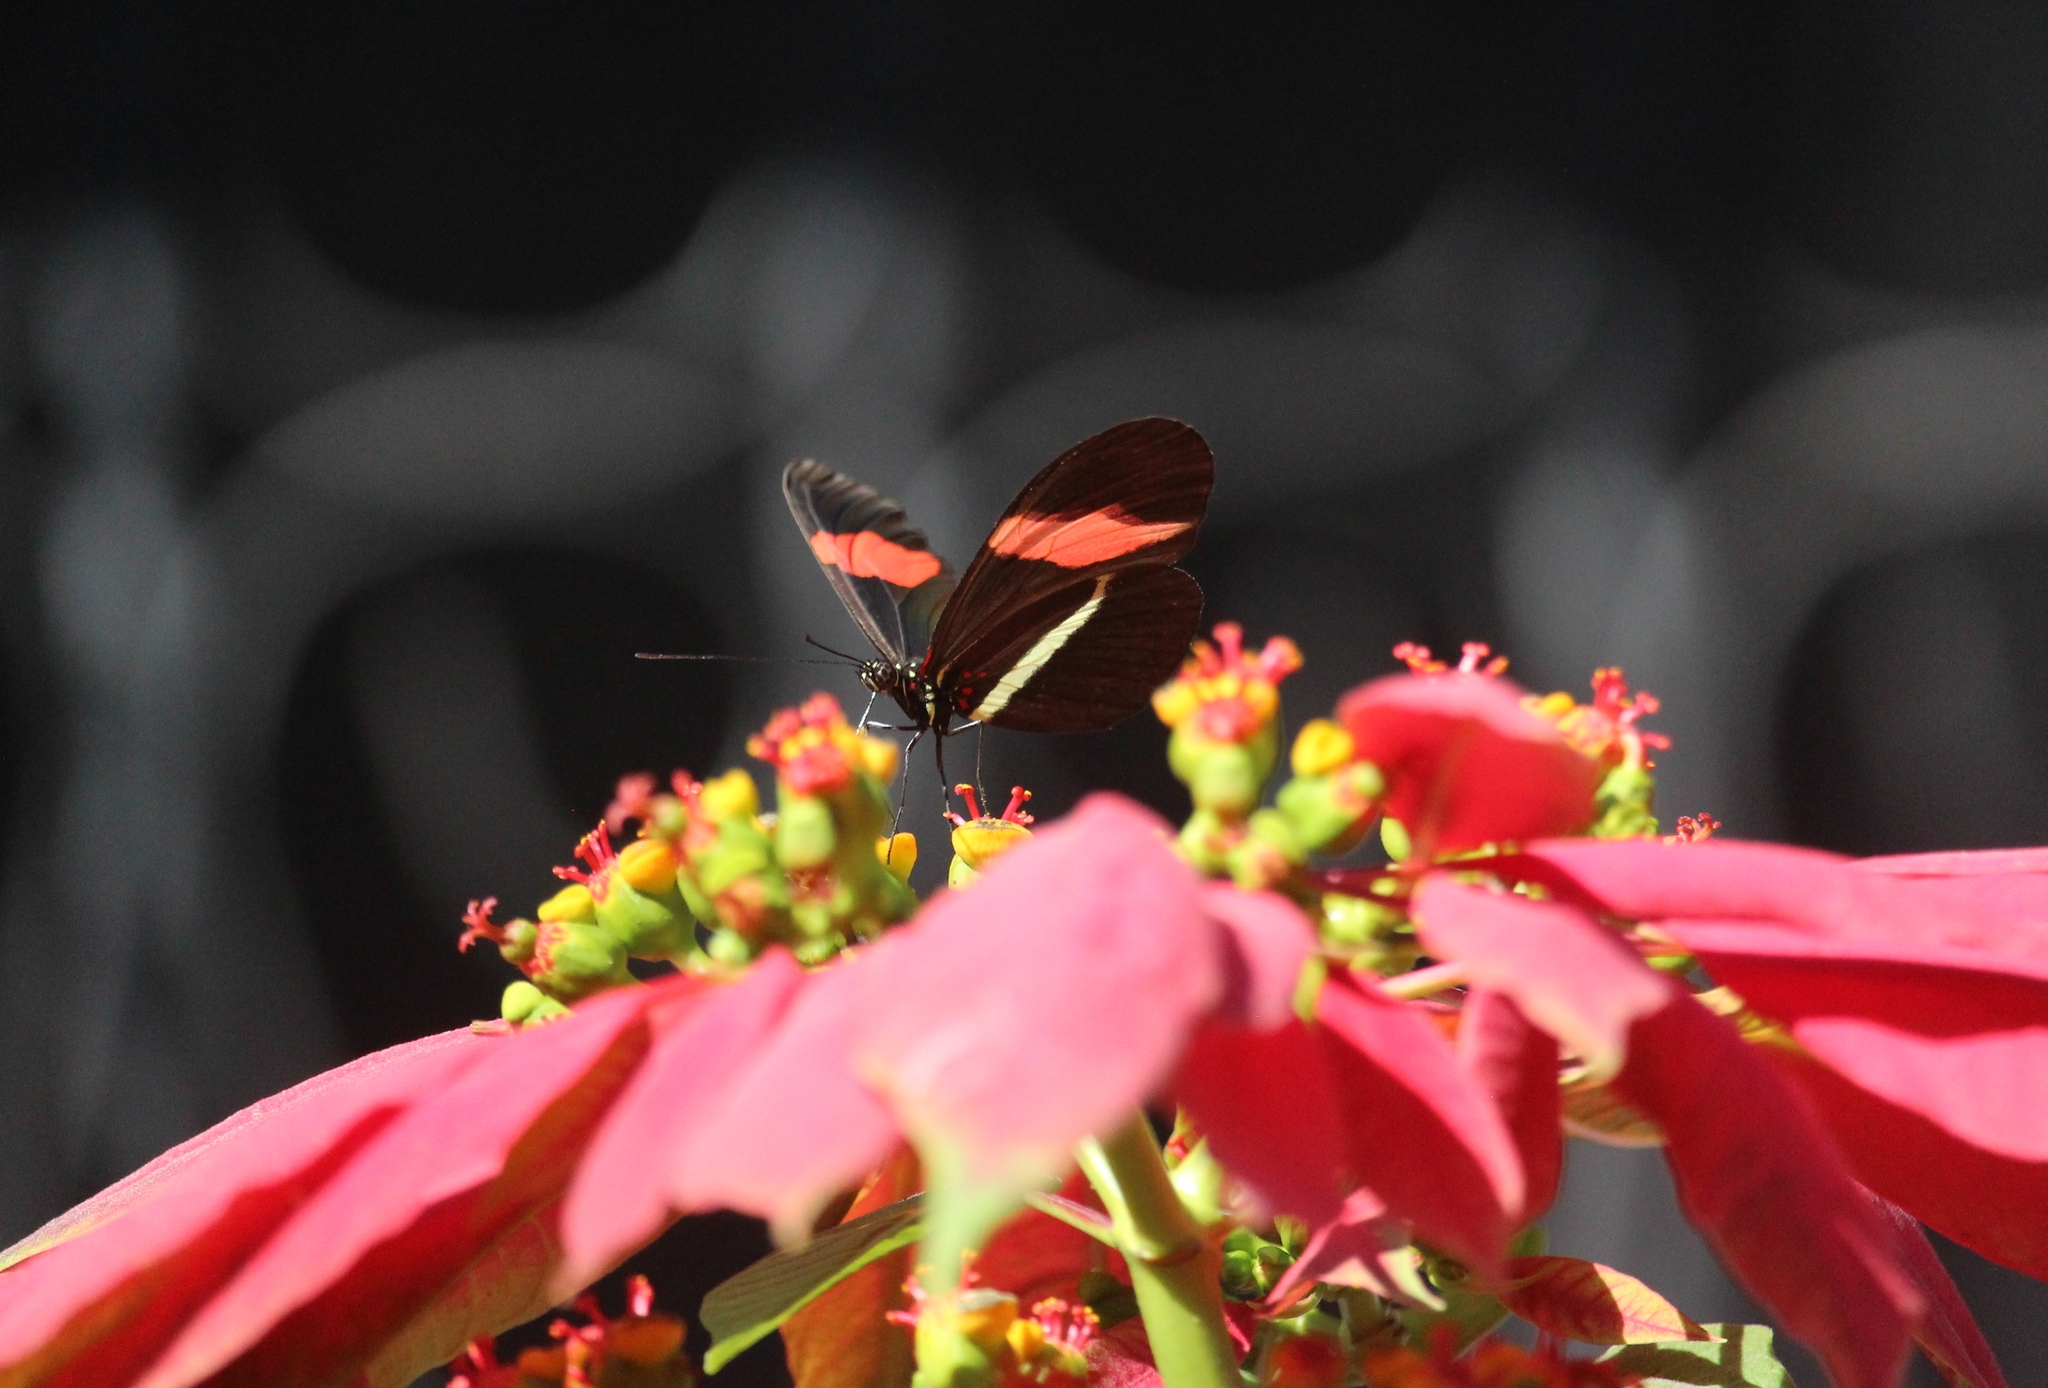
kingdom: Animalia
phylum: Arthropoda
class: Insecta
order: Lepidoptera
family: Nymphalidae
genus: Tirumala
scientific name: Tirumala petiverana
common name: Blue monarch
